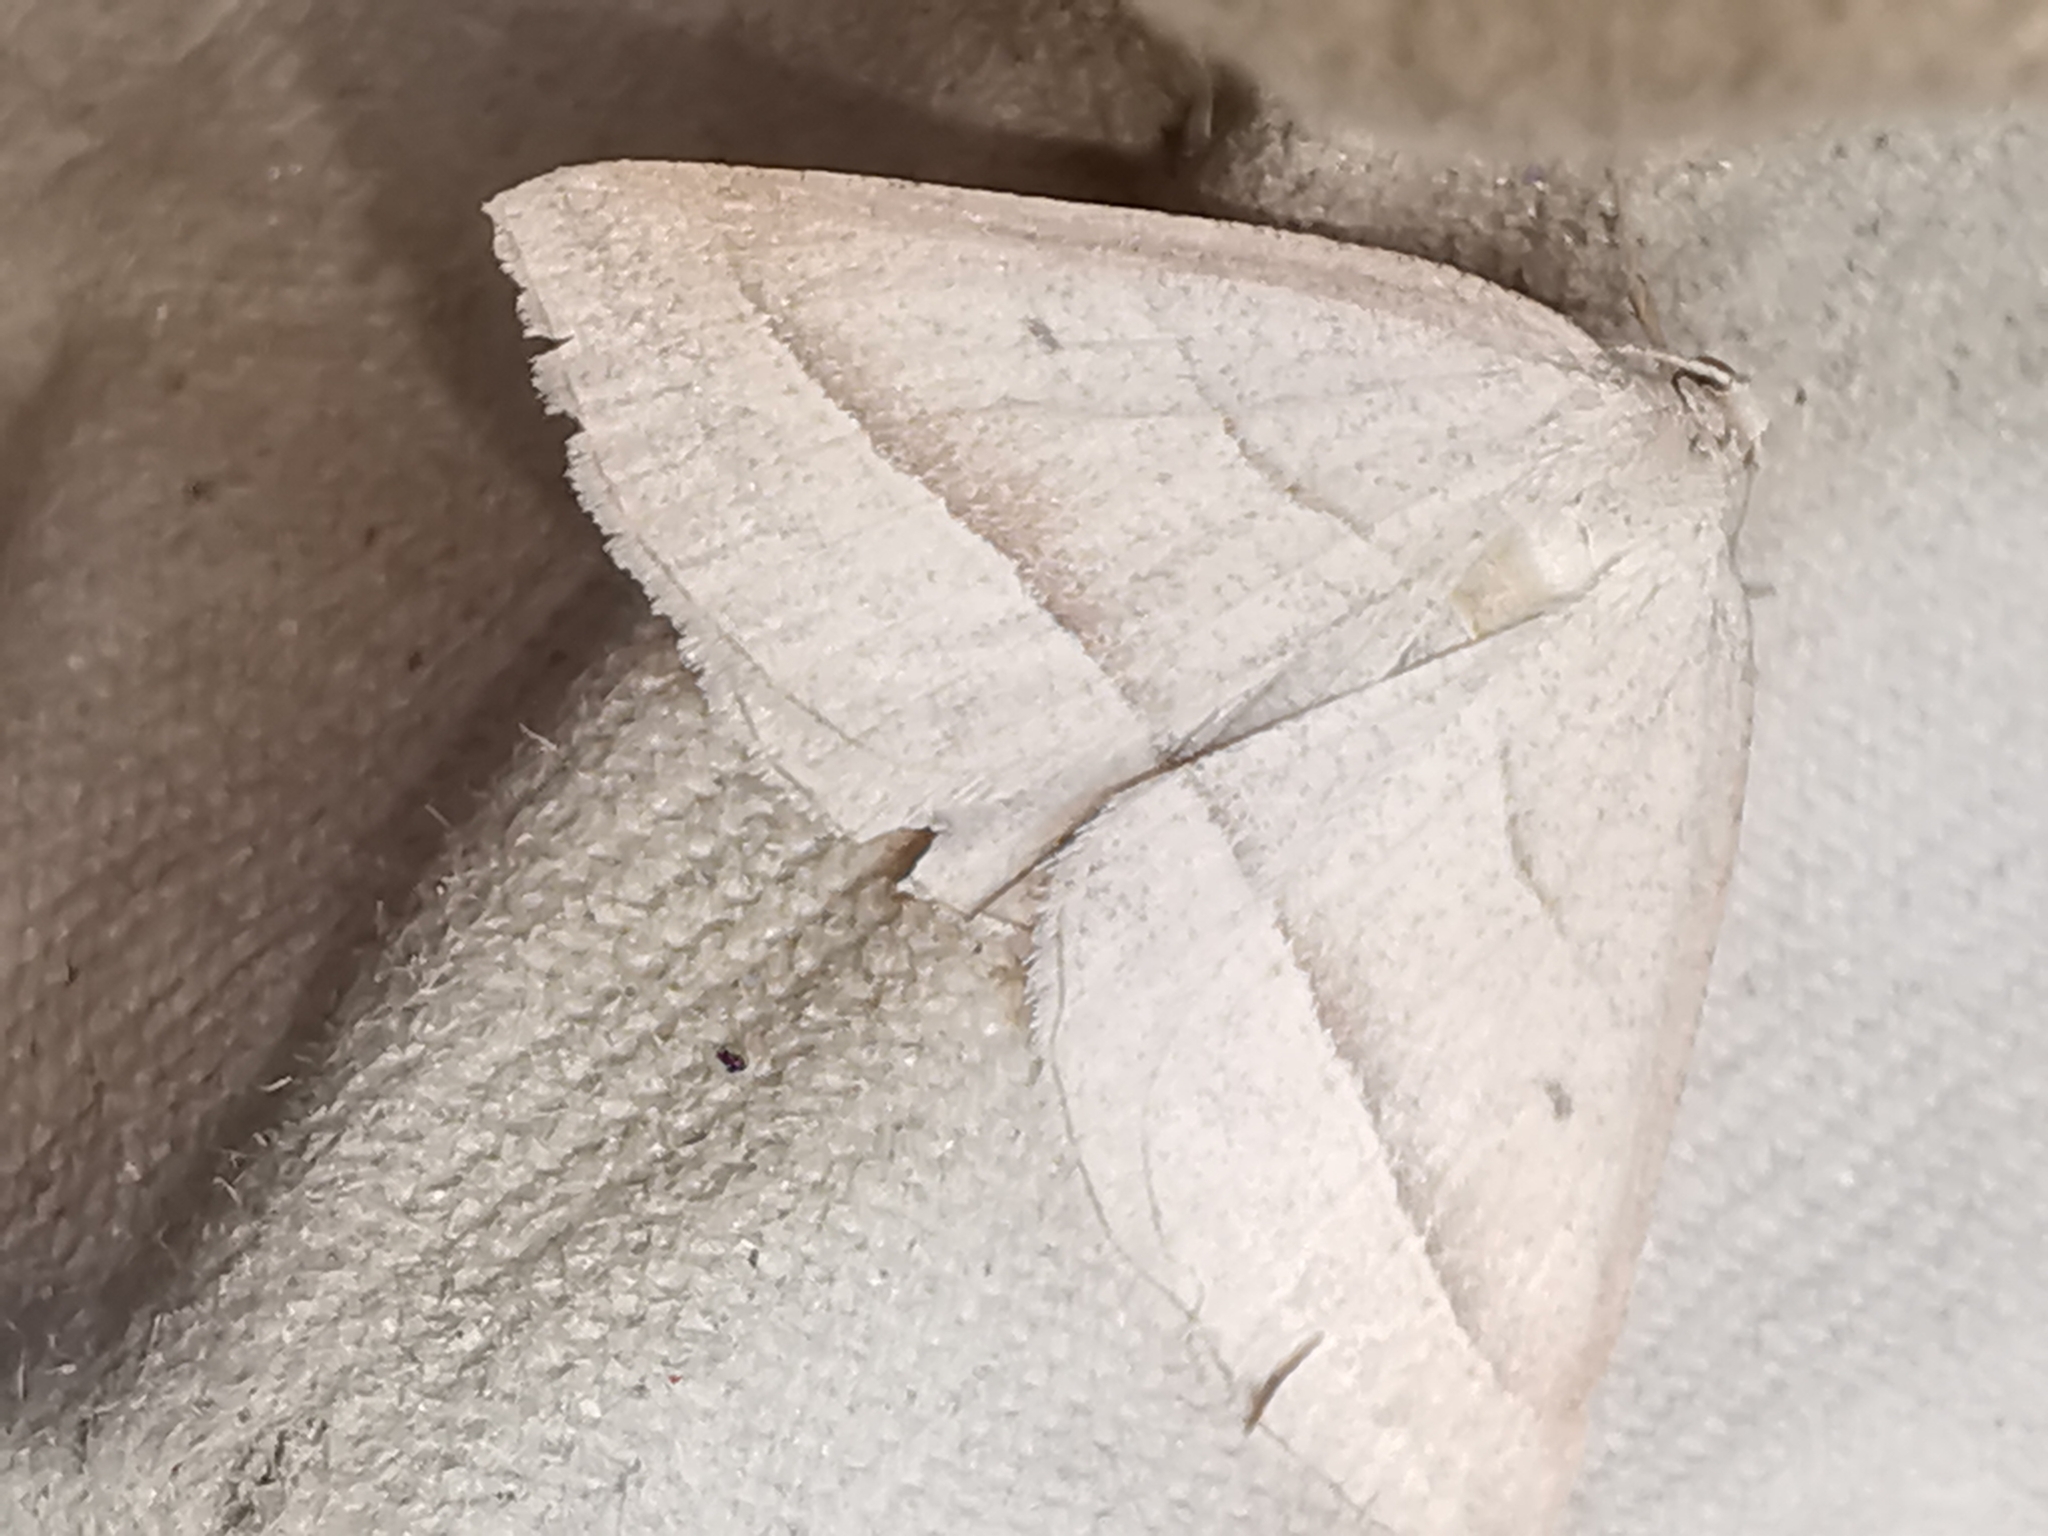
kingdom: Animalia
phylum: Arthropoda
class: Insecta
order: Lepidoptera
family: Pterophoridae
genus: Pterophorus
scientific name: Pterophorus Petrophora chlorosata
